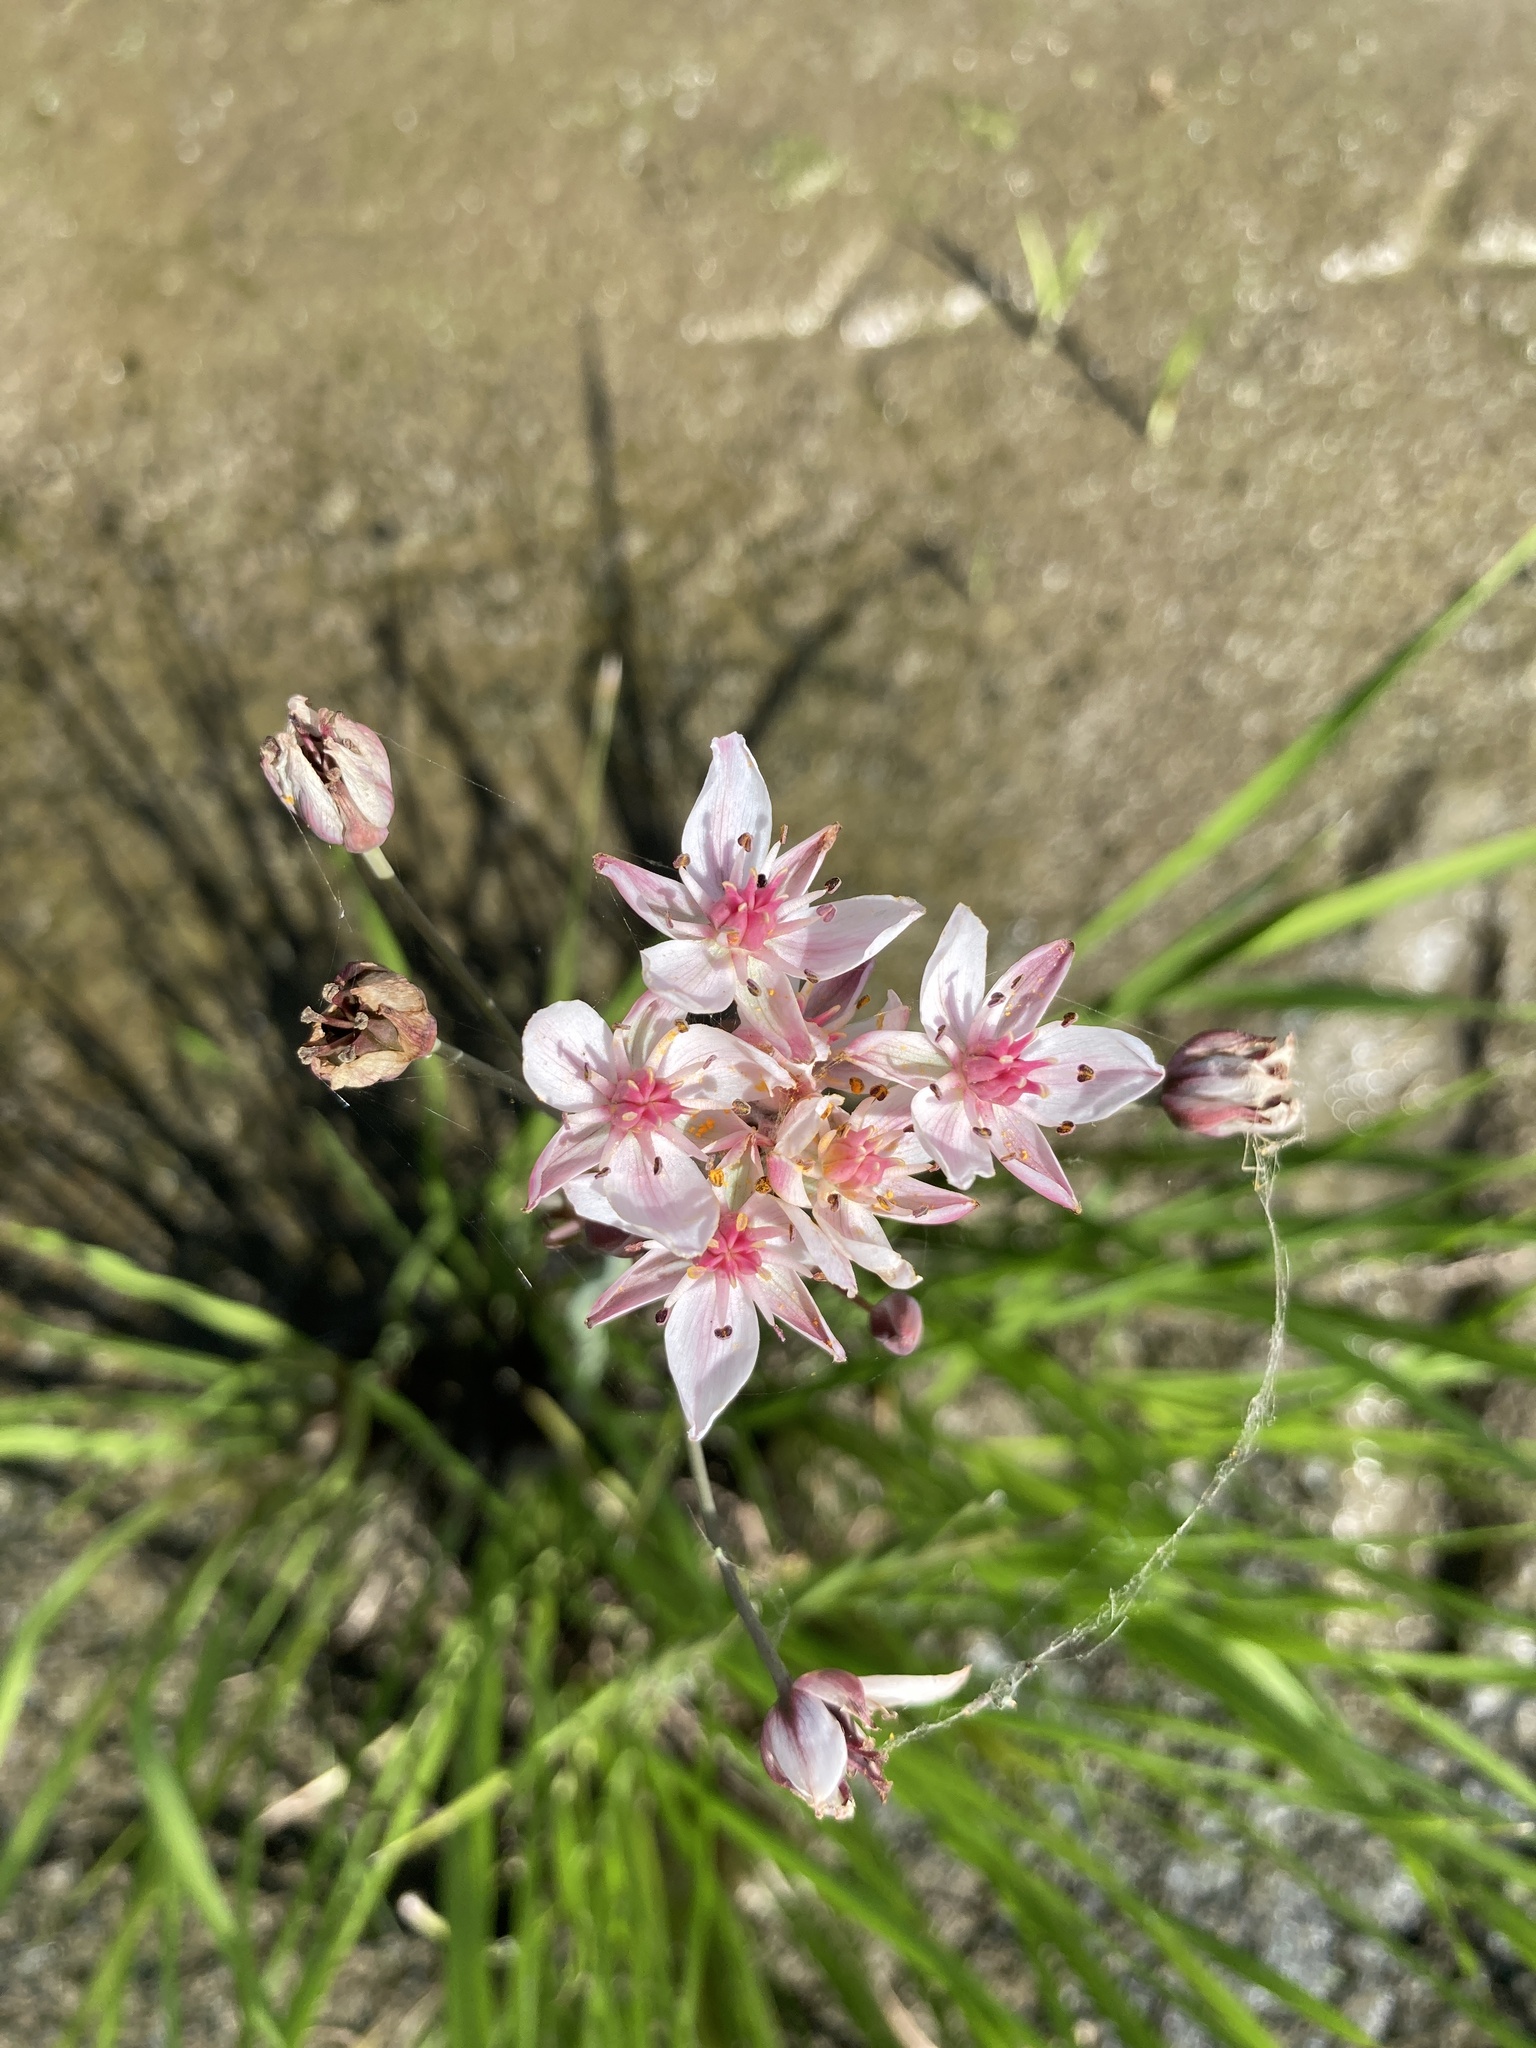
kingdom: Plantae
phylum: Tracheophyta
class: Liliopsida
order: Alismatales
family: Butomaceae
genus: Butomus
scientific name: Butomus umbellatus
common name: Flowering-rush
